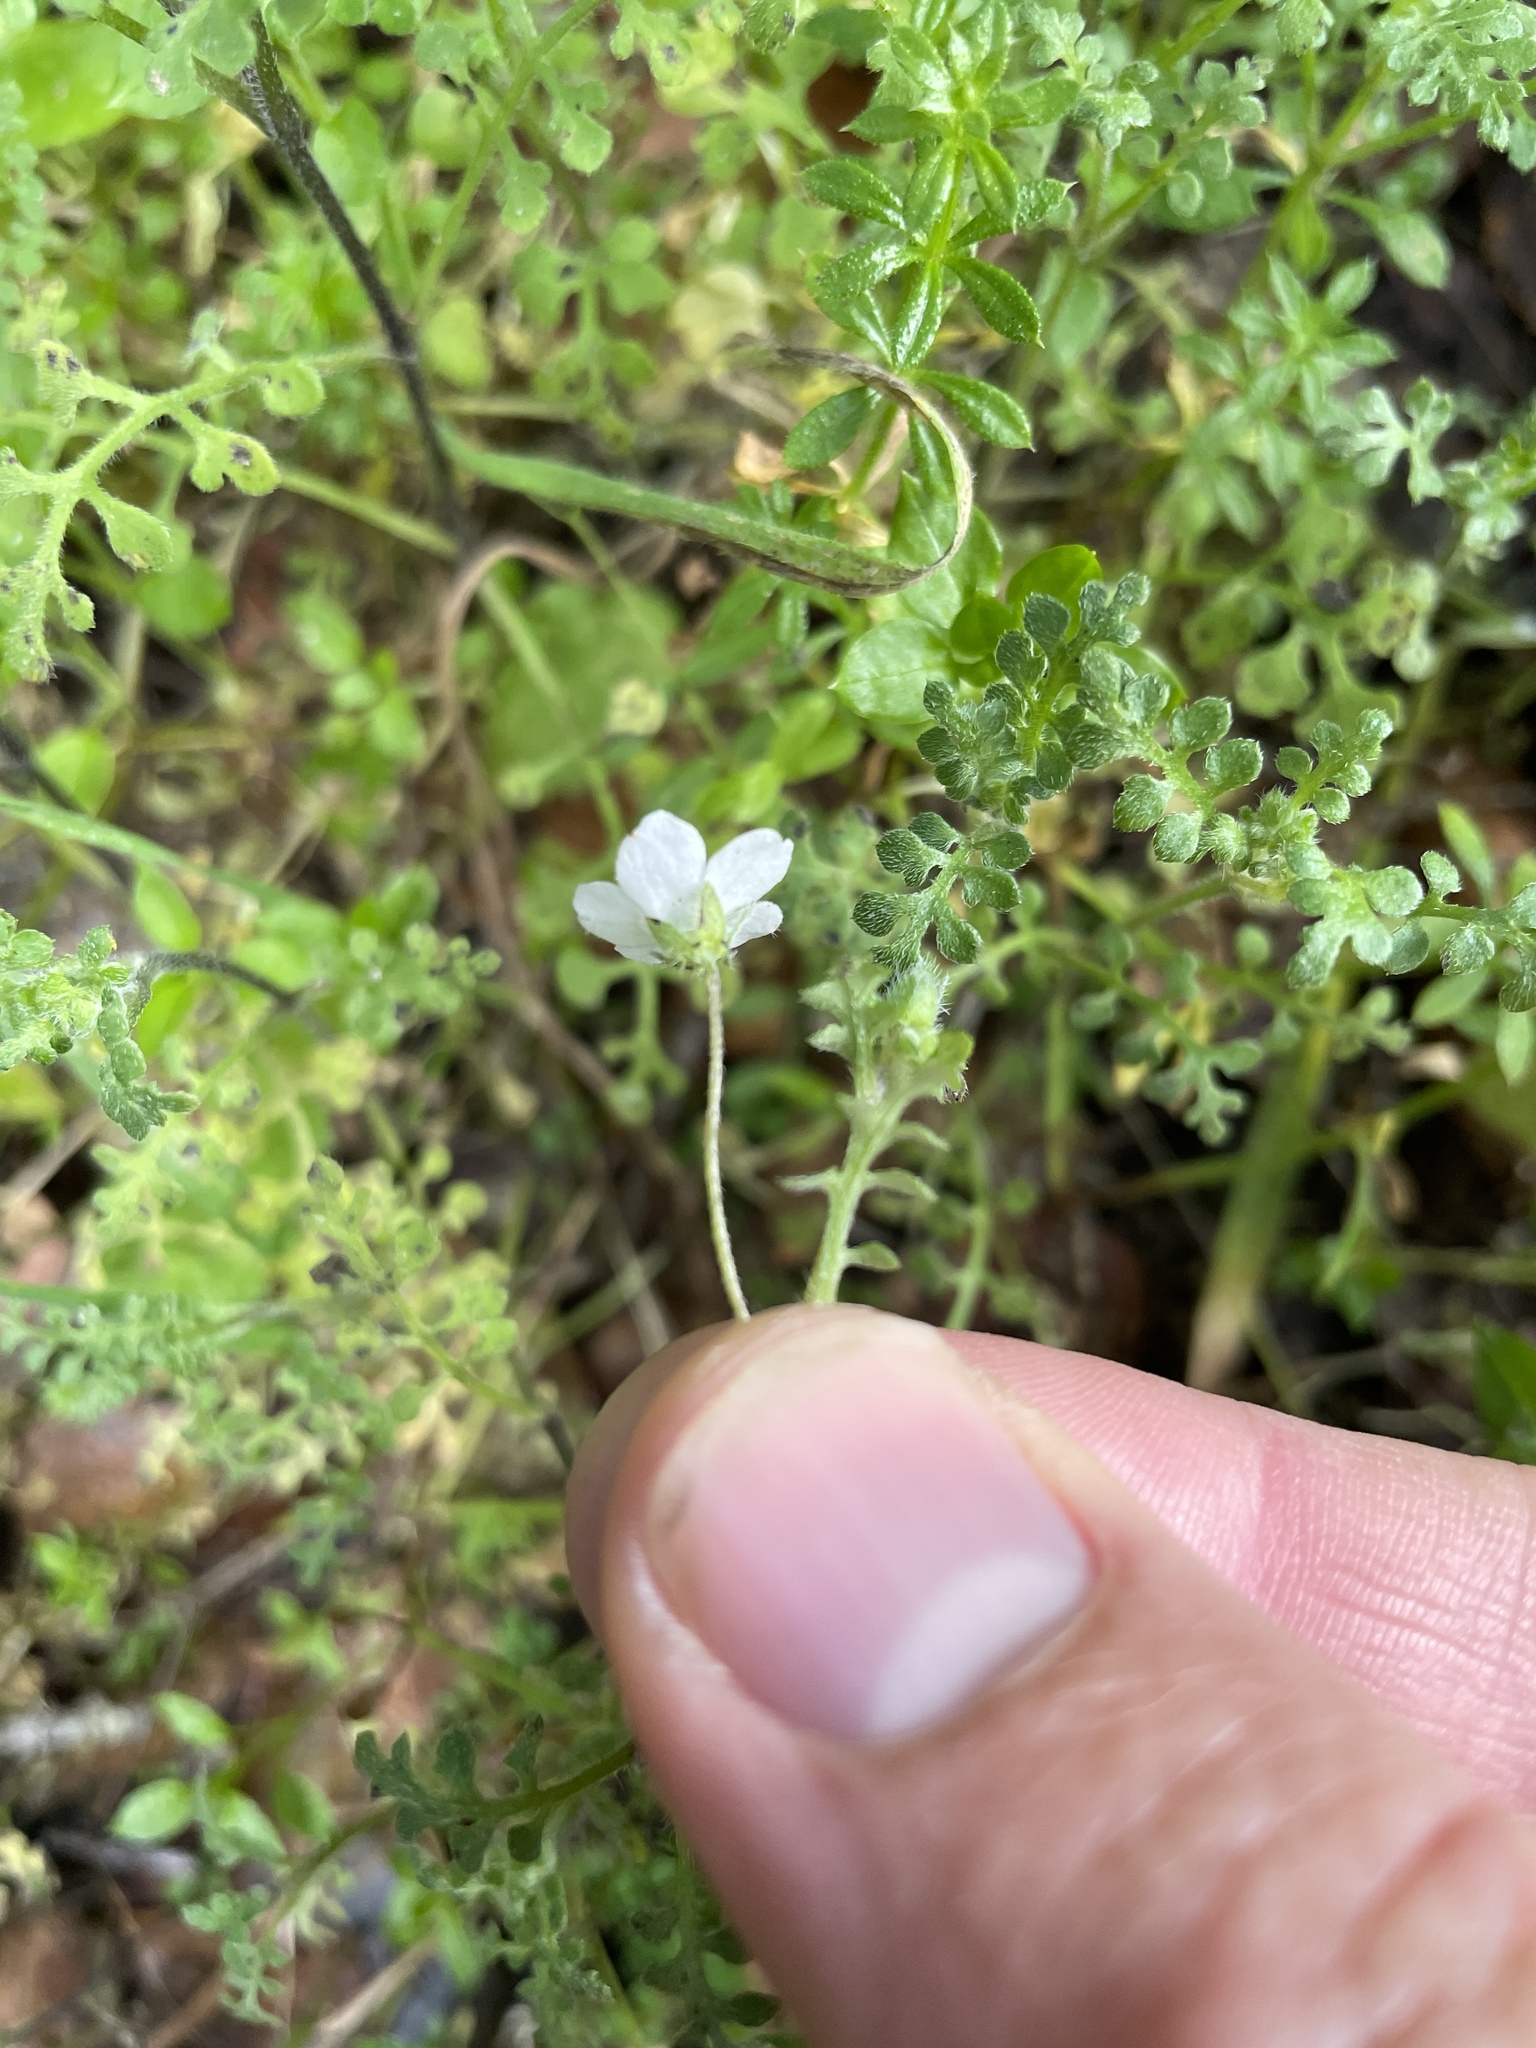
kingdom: Plantae
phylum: Tracheophyta
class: Magnoliopsida
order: Boraginales
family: Hydrophyllaceae
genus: Nemophila
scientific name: Nemophila heterophylla
